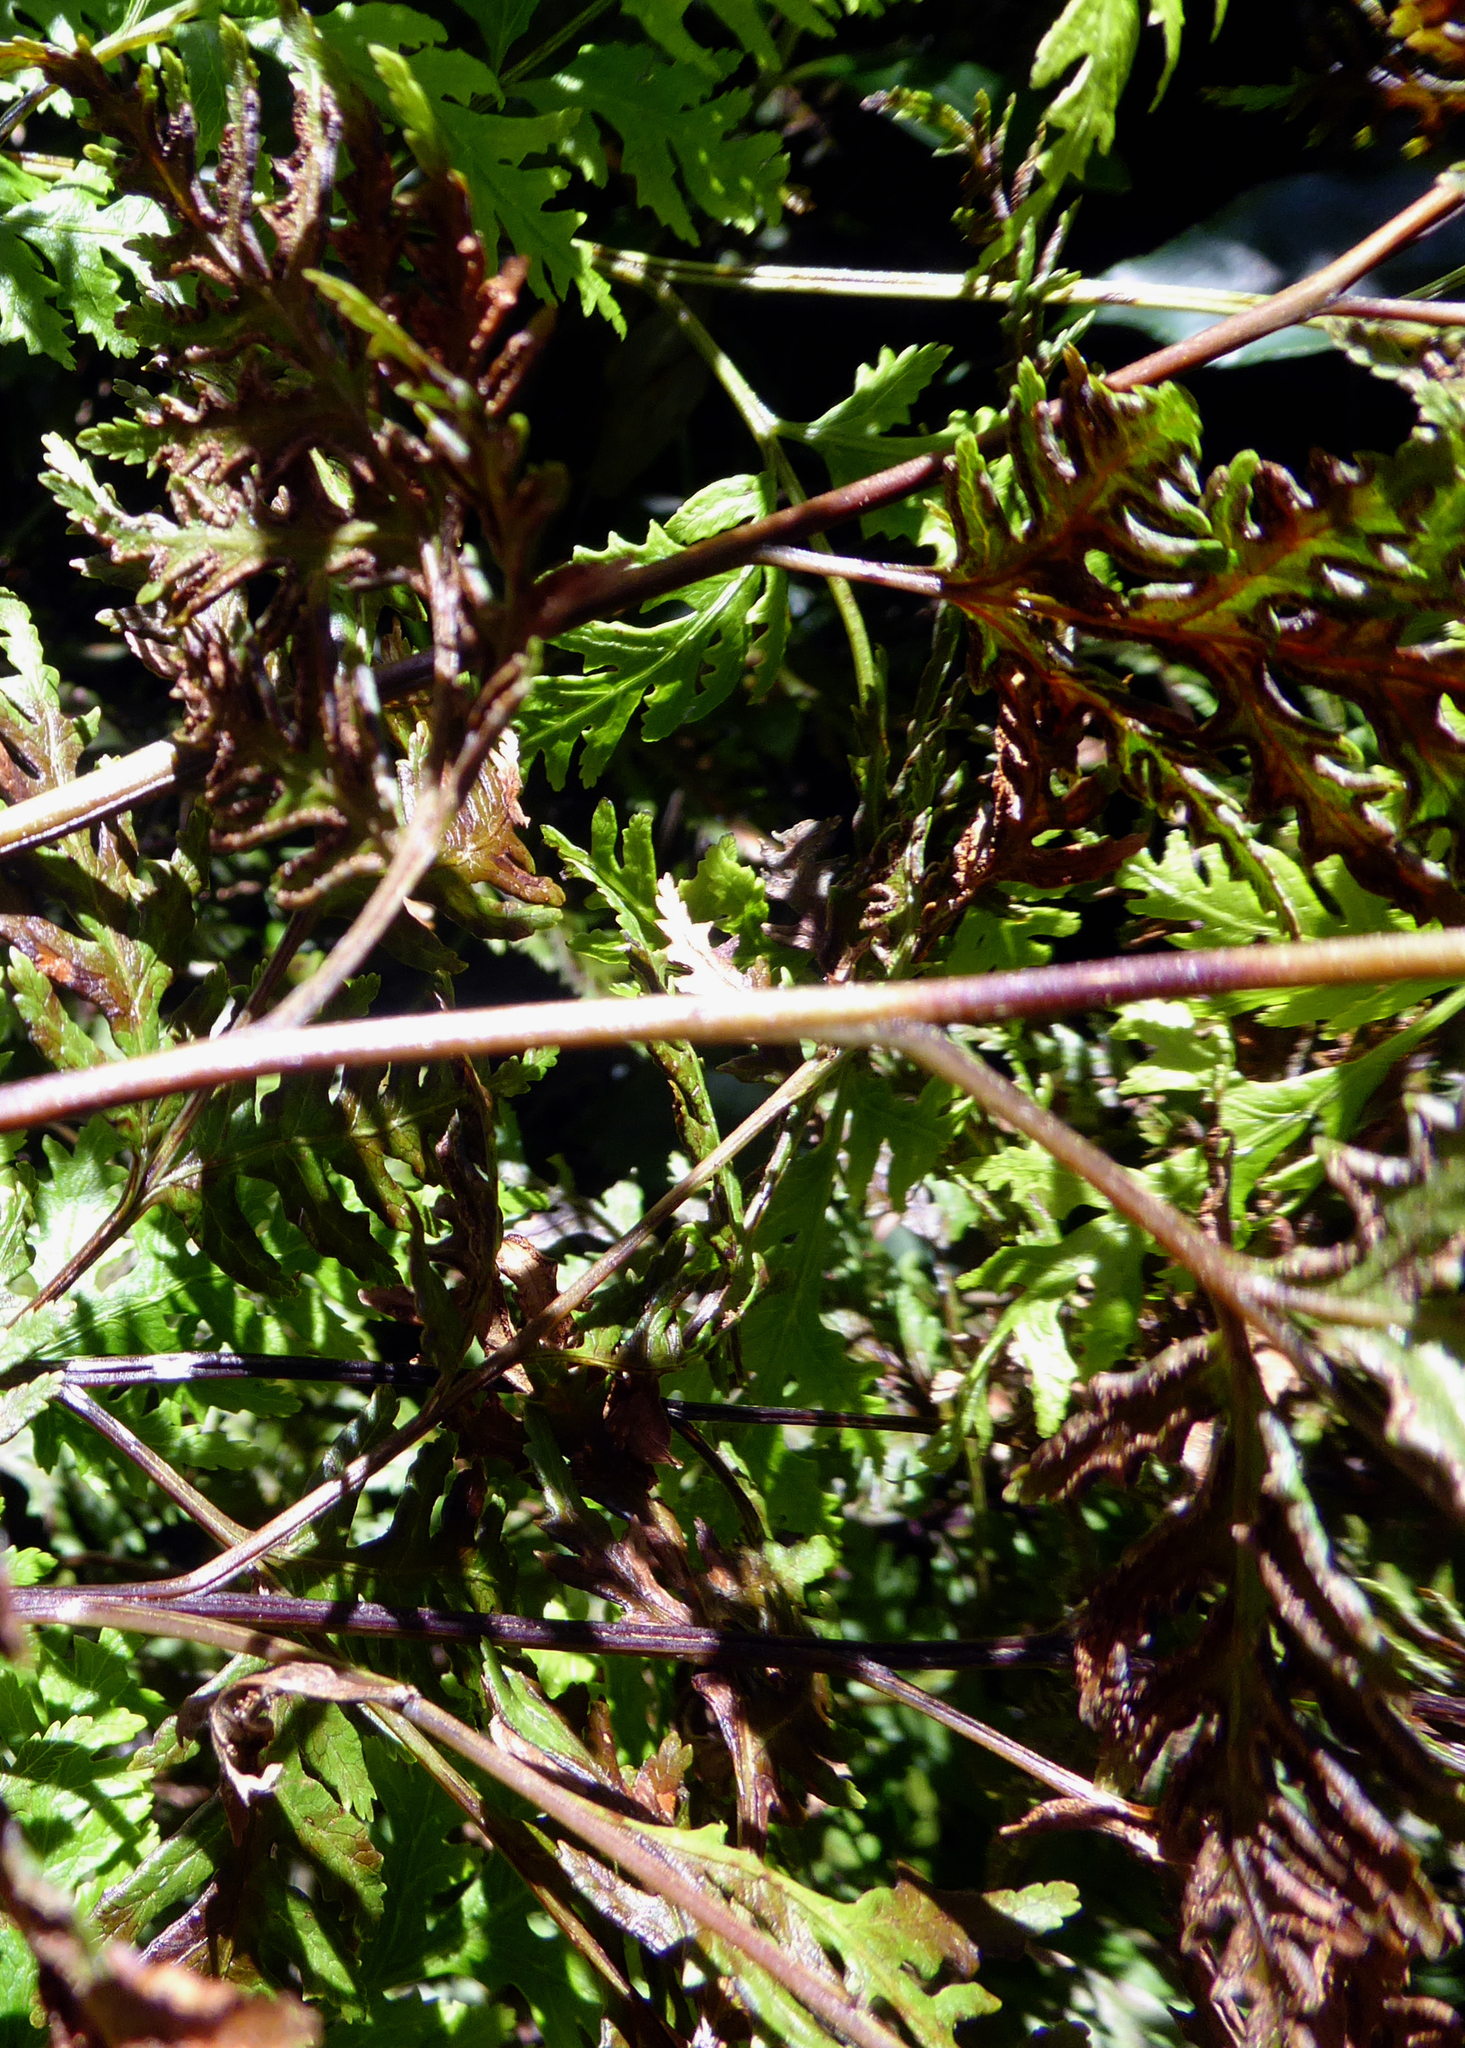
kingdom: Plantae
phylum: Tracheophyta
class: Polypodiopsida
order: Polypodiales
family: Pteridaceae
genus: Pteris
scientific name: Pteris macilenta
